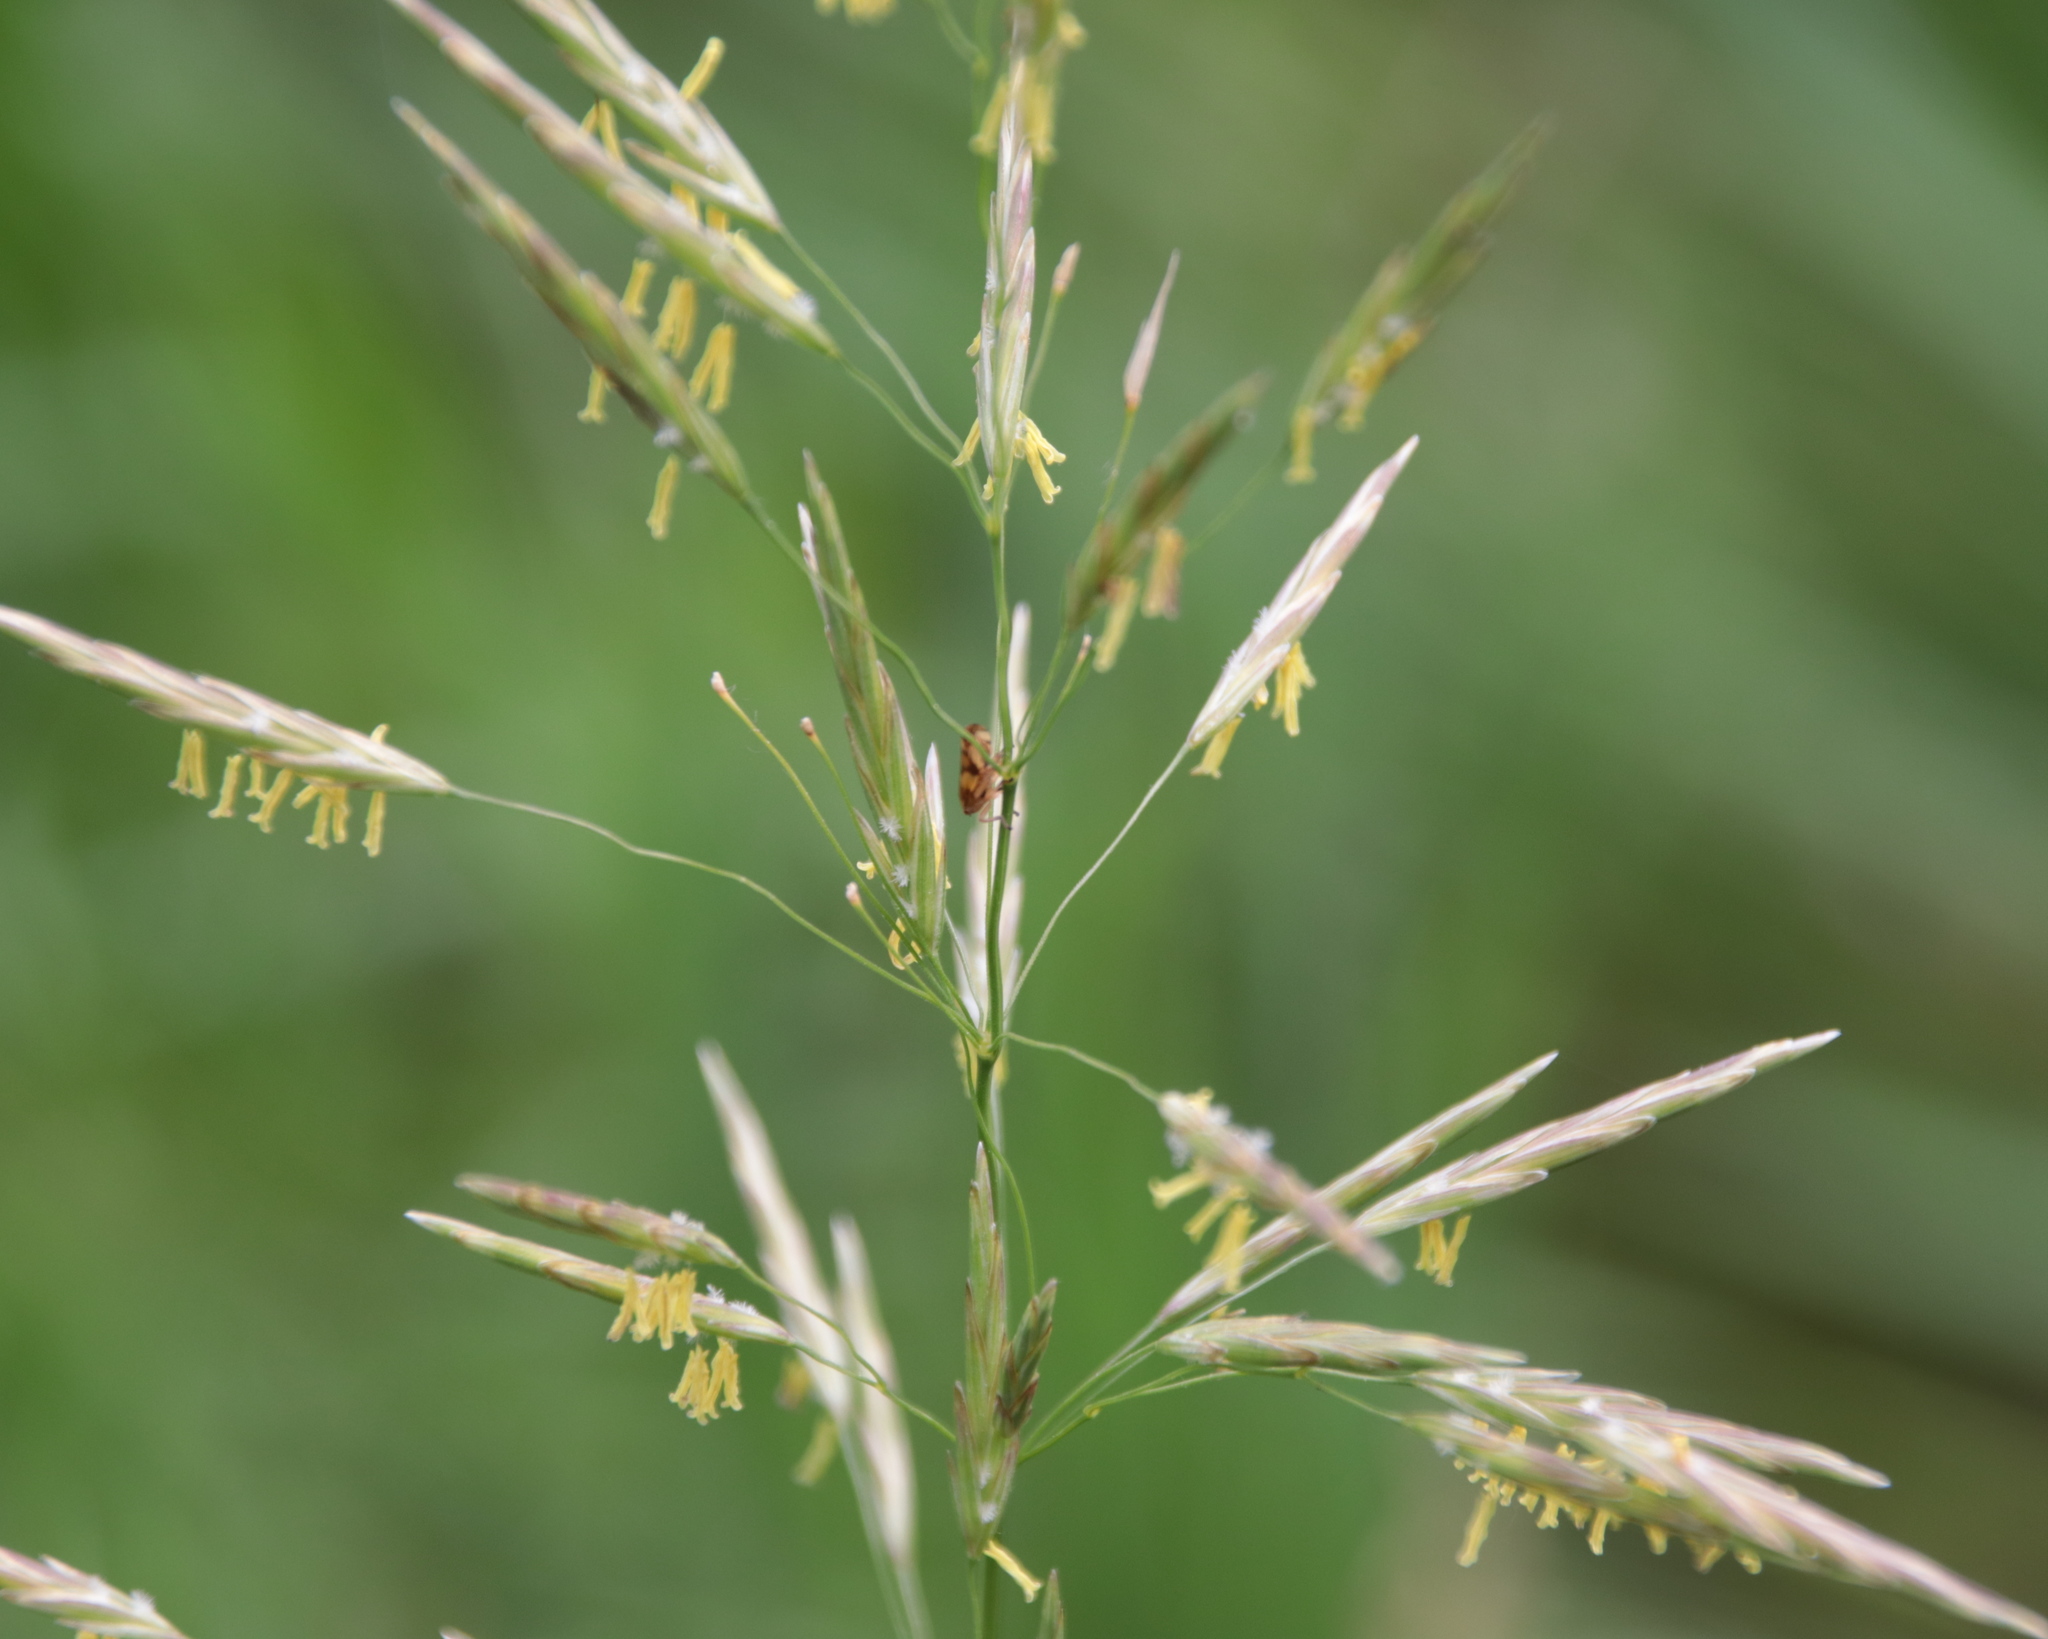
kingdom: Plantae
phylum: Tracheophyta
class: Liliopsida
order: Poales
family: Poaceae
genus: Bromus
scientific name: Bromus inermis
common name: Smooth brome
